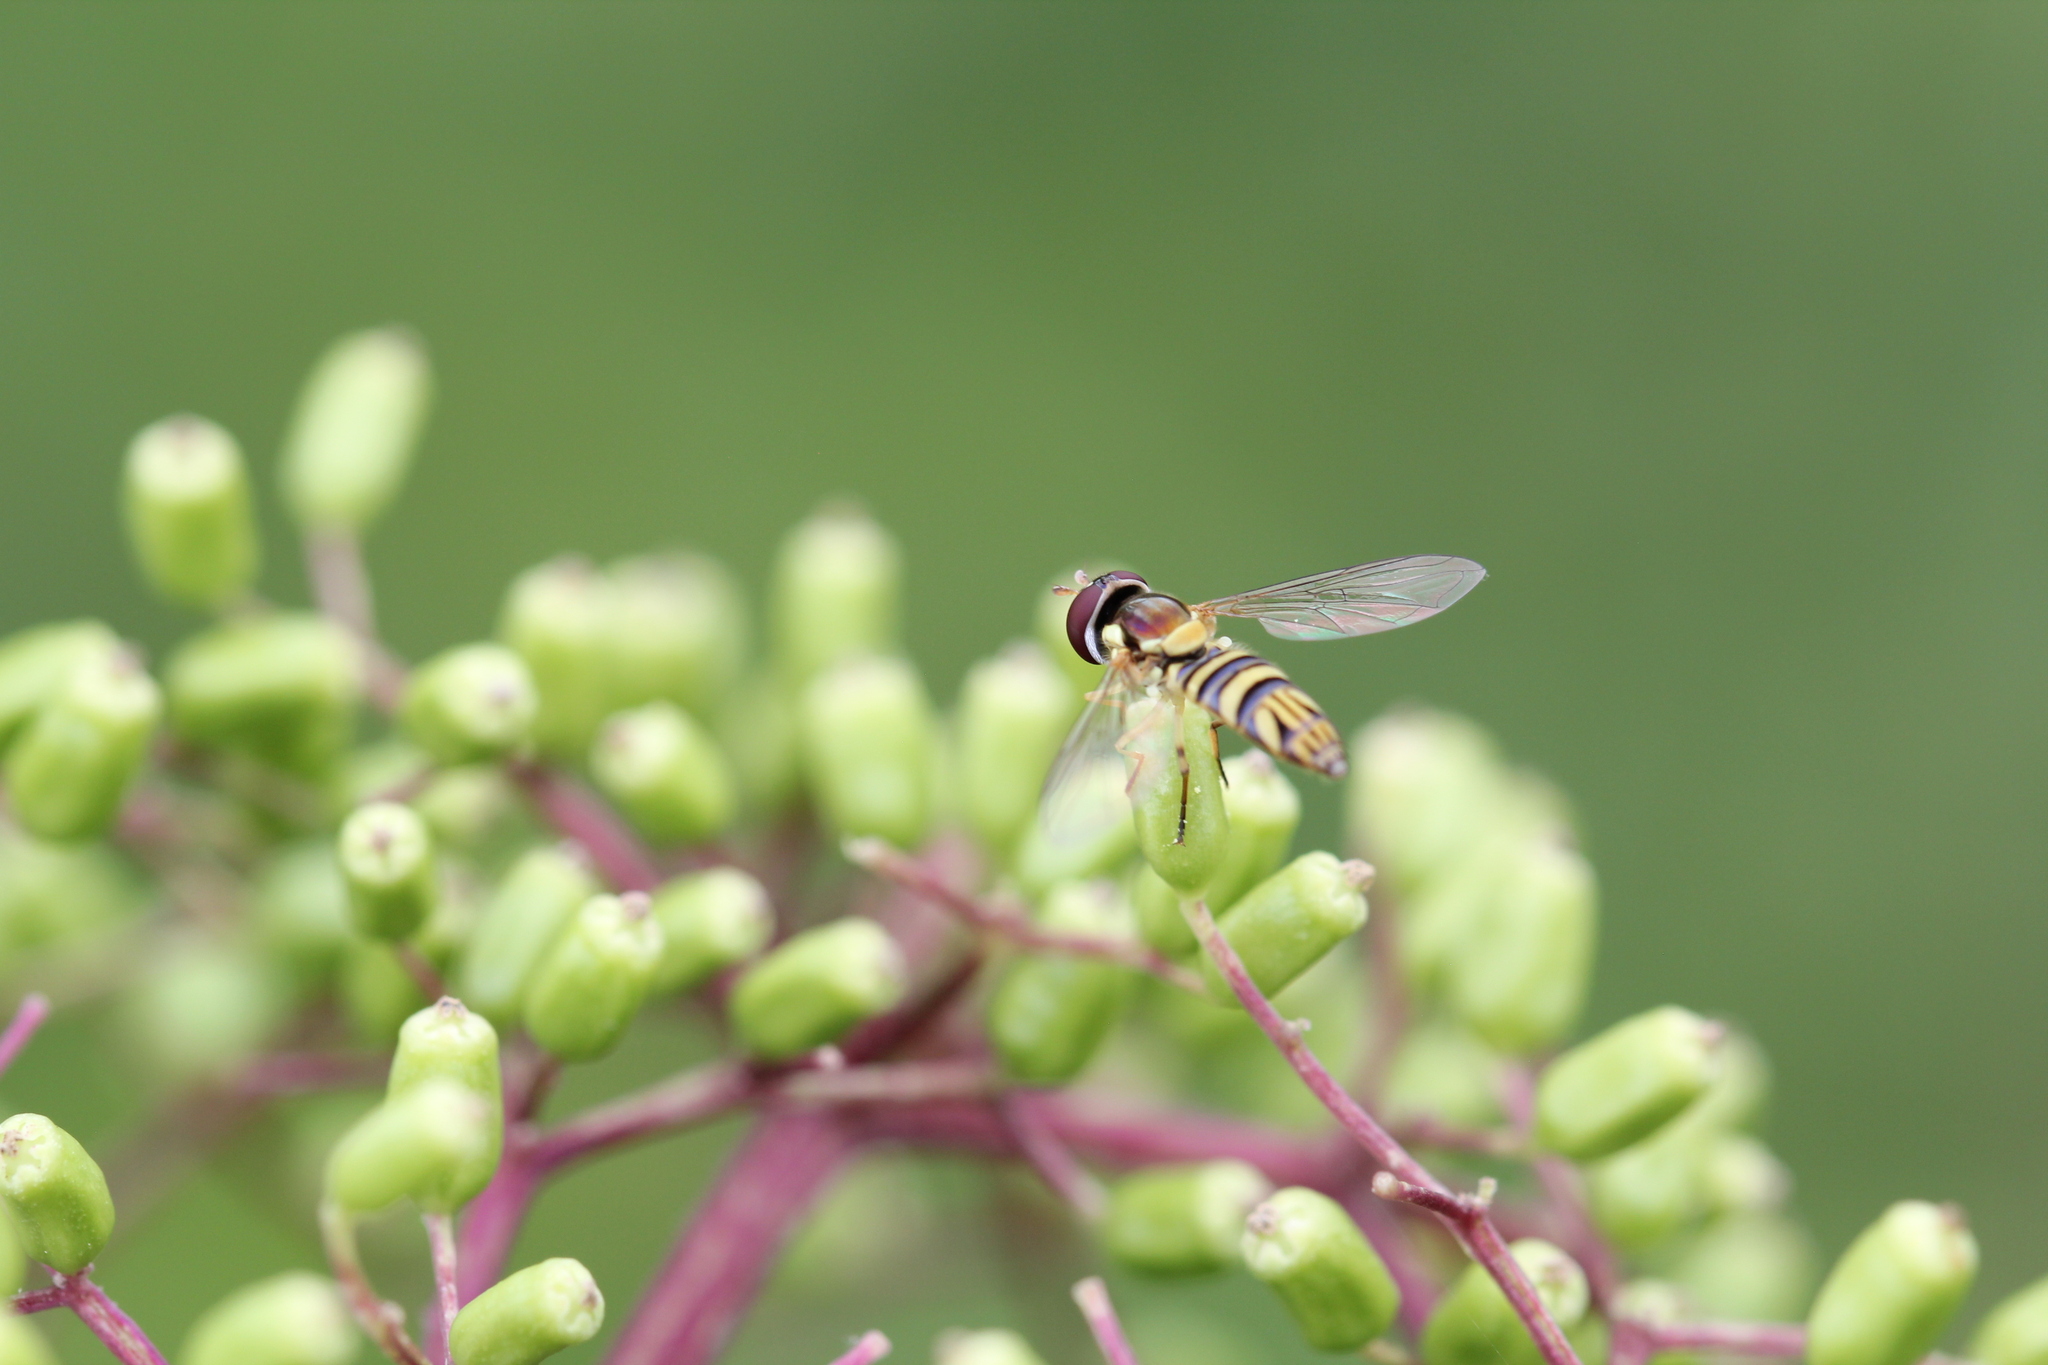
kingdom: Animalia
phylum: Arthropoda
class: Insecta
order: Diptera
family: Syrphidae
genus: Allograpta
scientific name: Allograpta obliqua
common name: Common oblique syrphid
